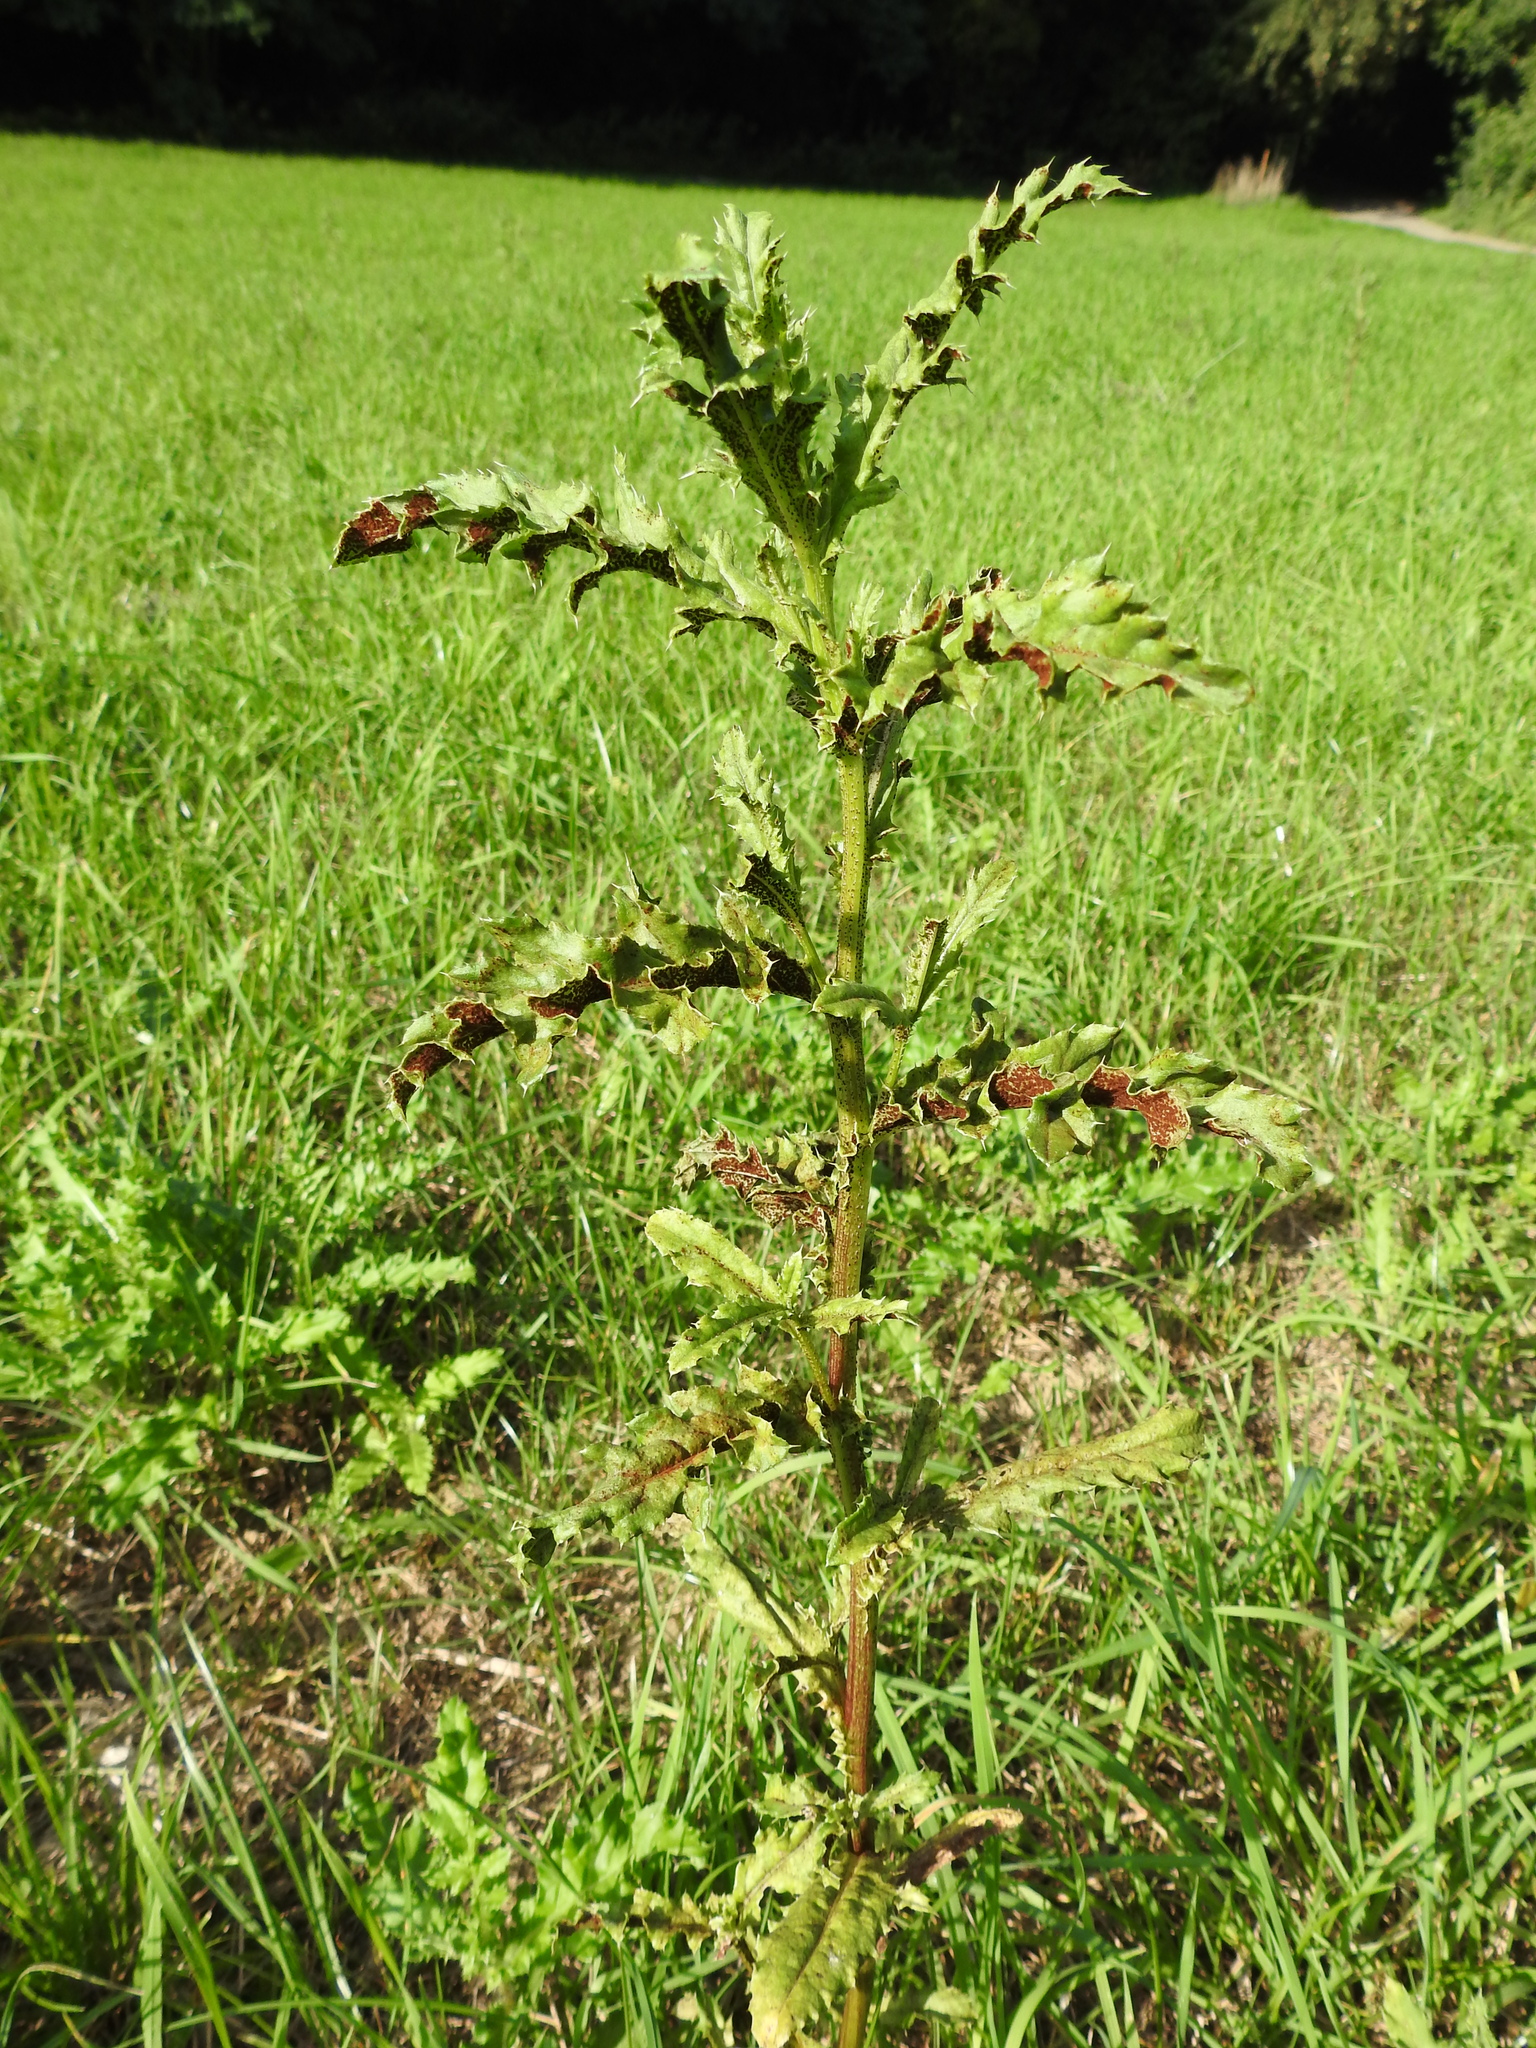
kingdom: Fungi
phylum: Basidiomycota
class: Pucciniomycetes
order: Pucciniales
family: Pucciniaceae
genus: Puccinia
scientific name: Puccinia suaveolens
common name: Thistle rust
